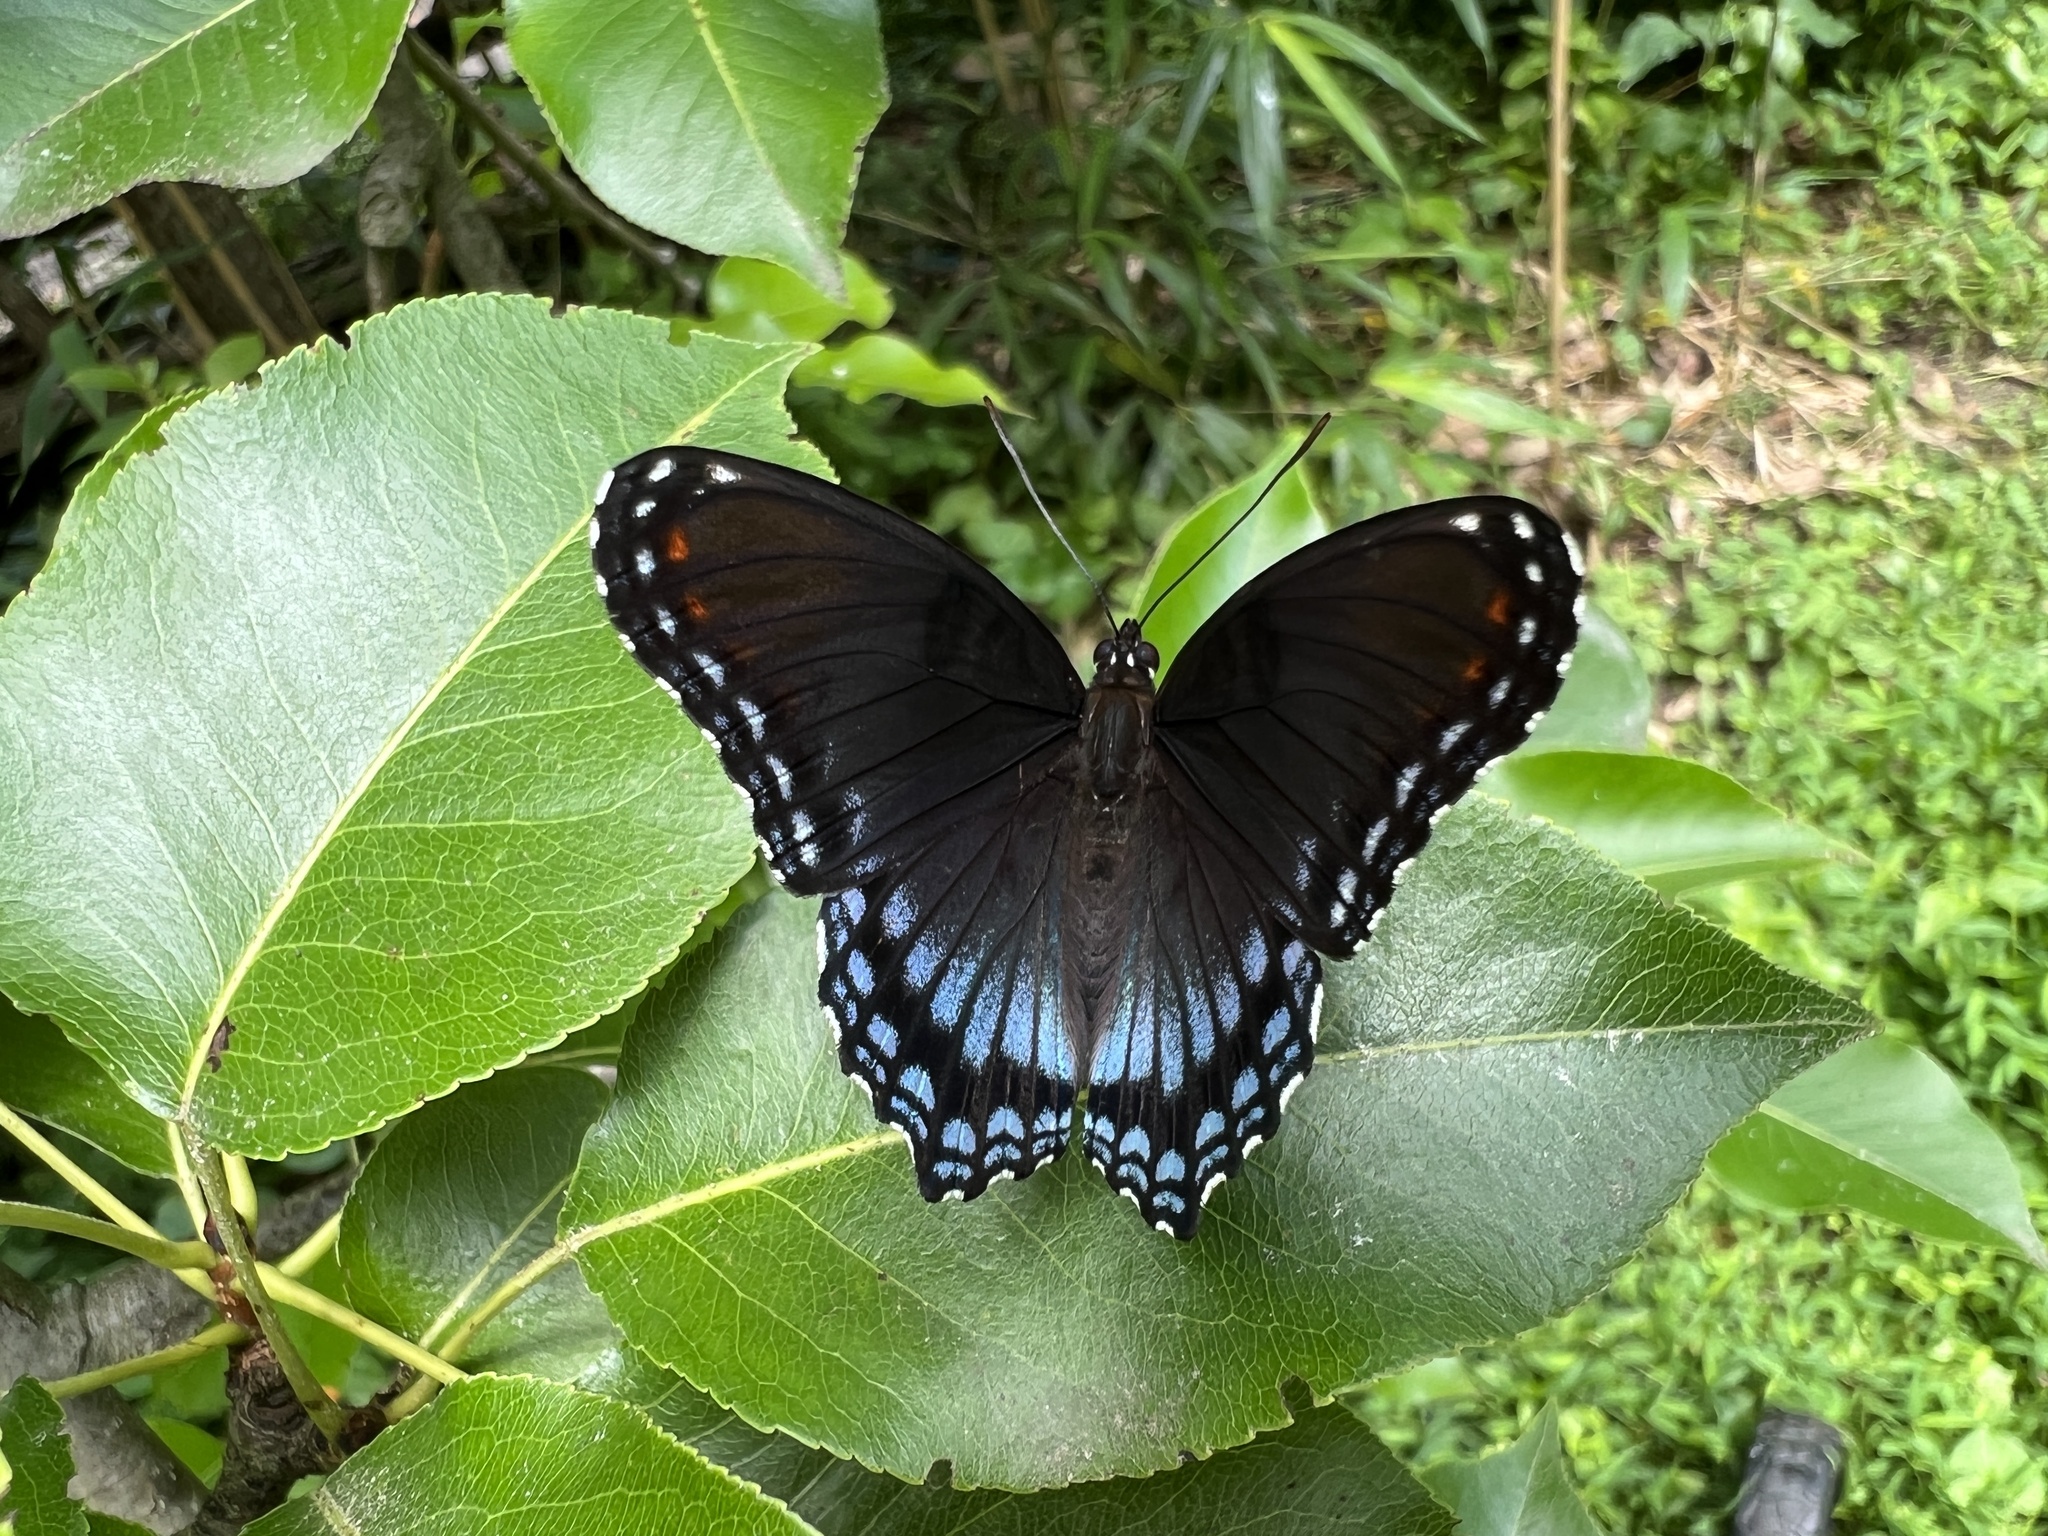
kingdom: Animalia
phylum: Arthropoda
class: Insecta
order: Lepidoptera
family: Nymphalidae
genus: Limenitis
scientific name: Limenitis astyanax
